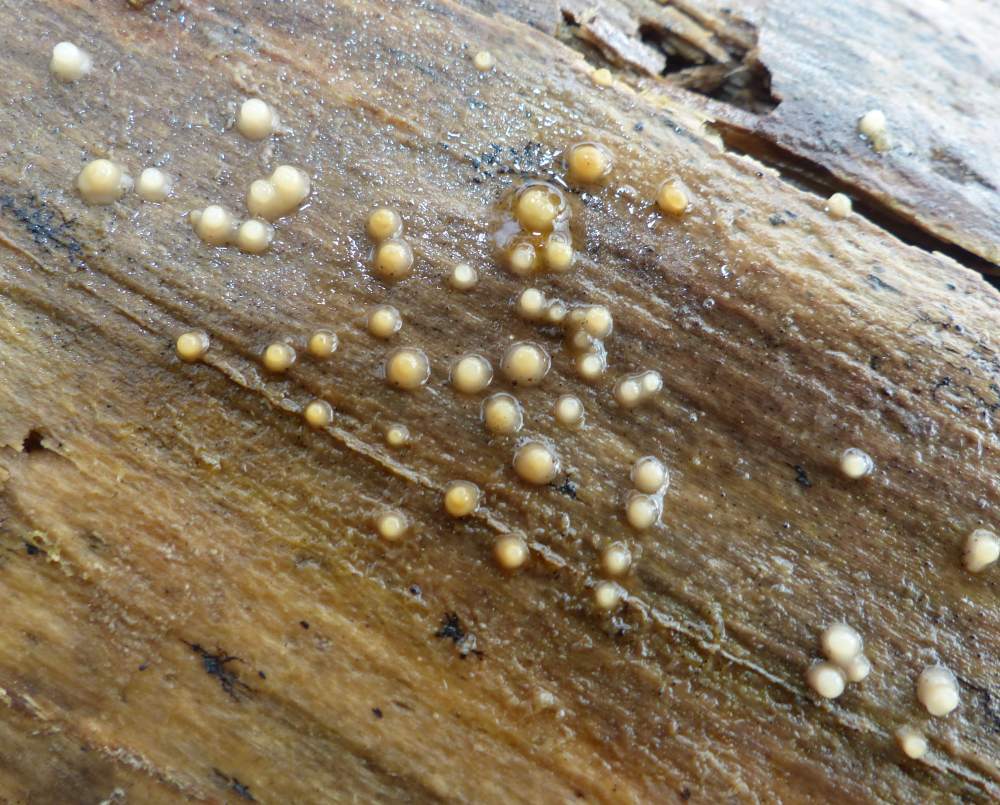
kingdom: Fungi
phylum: Basidiomycota
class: Atractiellomycetes
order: Atractiellales
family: Phleogenaceae
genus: Helicogloea
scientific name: Helicogloea compressa
